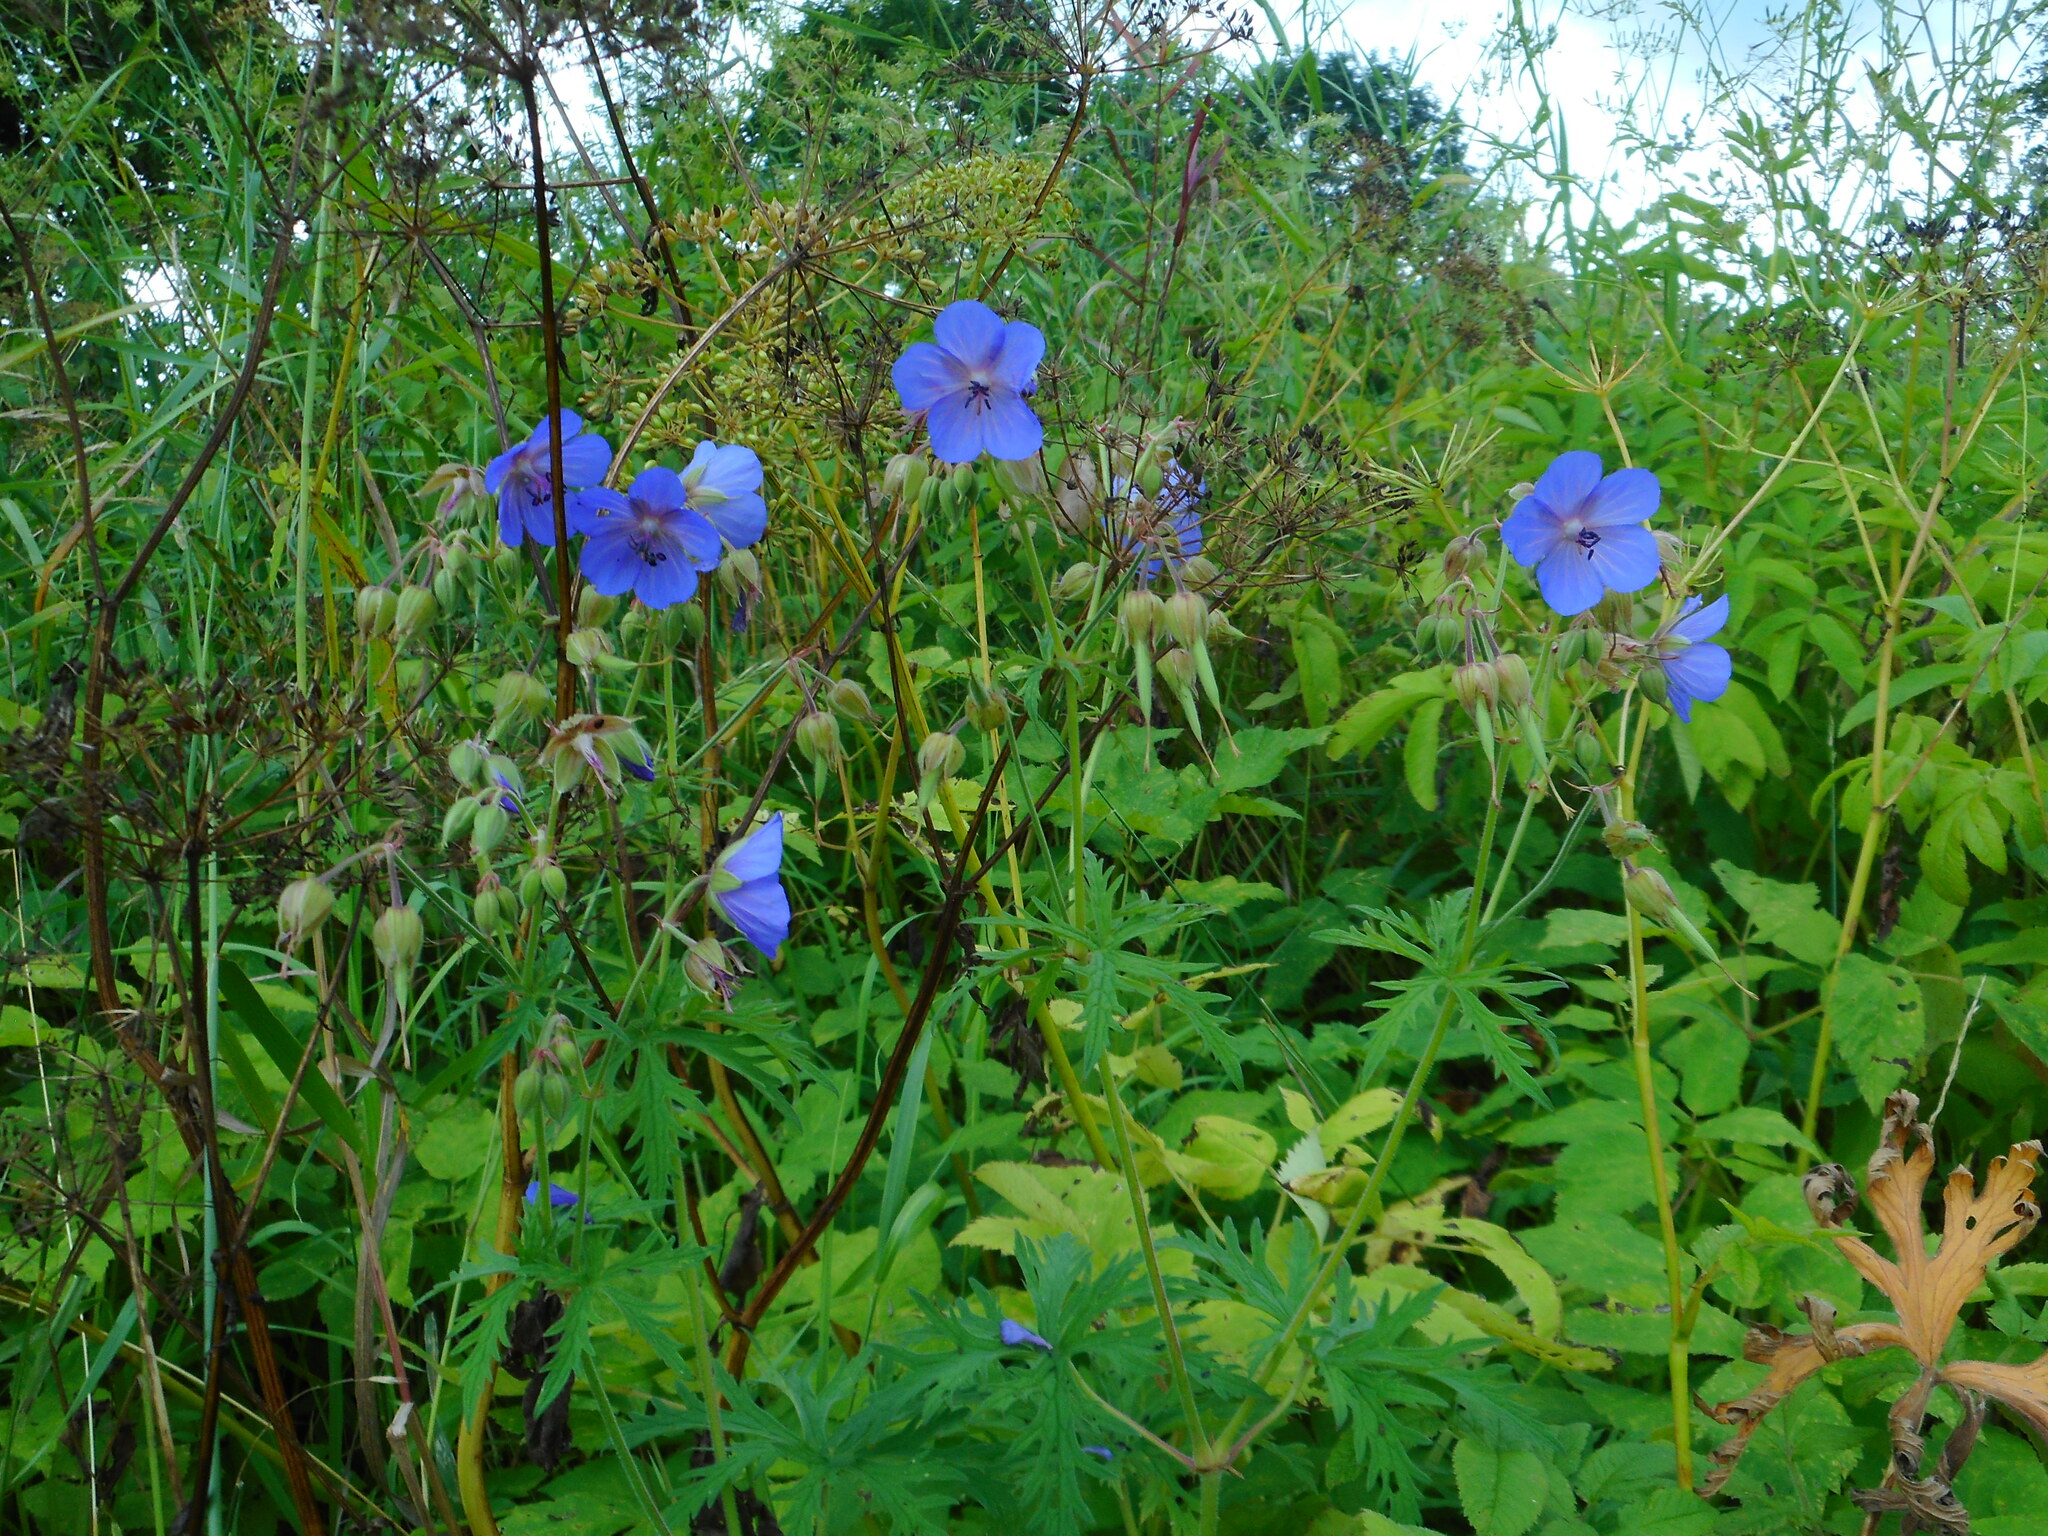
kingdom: Plantae
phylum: Tracheophyta
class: Magnoliopsida
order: Geraniales
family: Geraniaceae
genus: Geranium
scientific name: Geranium pratense
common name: Meadow crane's-bill
